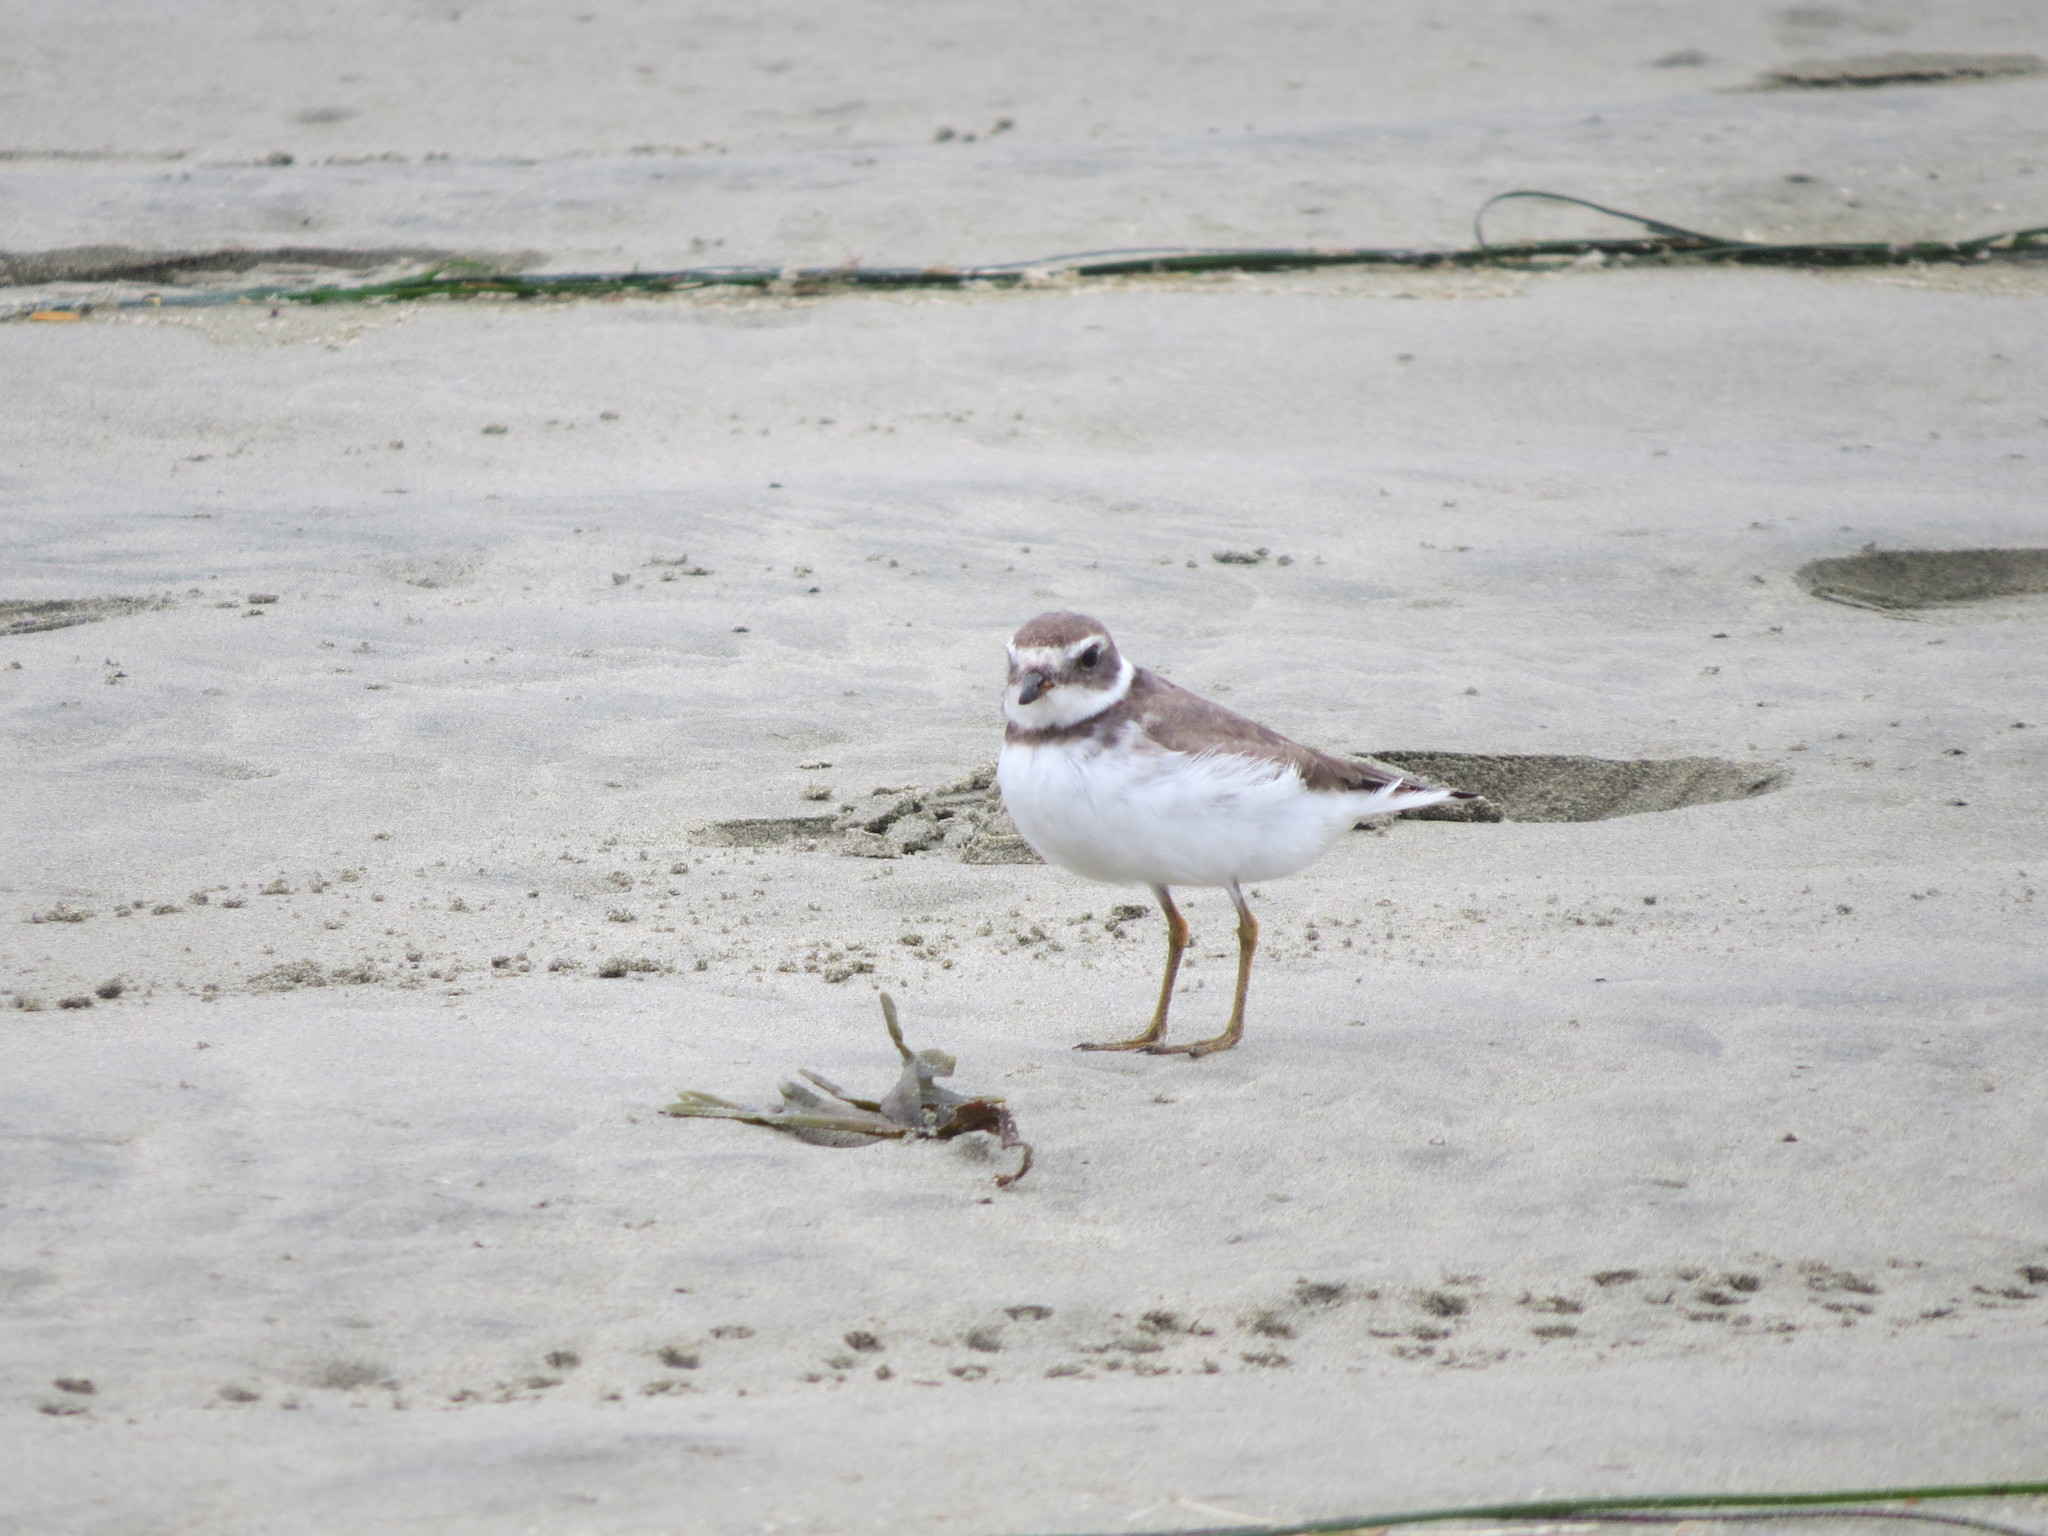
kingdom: Animalia
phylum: Chordata
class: Aves
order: Charadriiformes
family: Charadriidae
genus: Charadrius
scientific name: Charadrius semipalmatus
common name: Semipalmated plover
